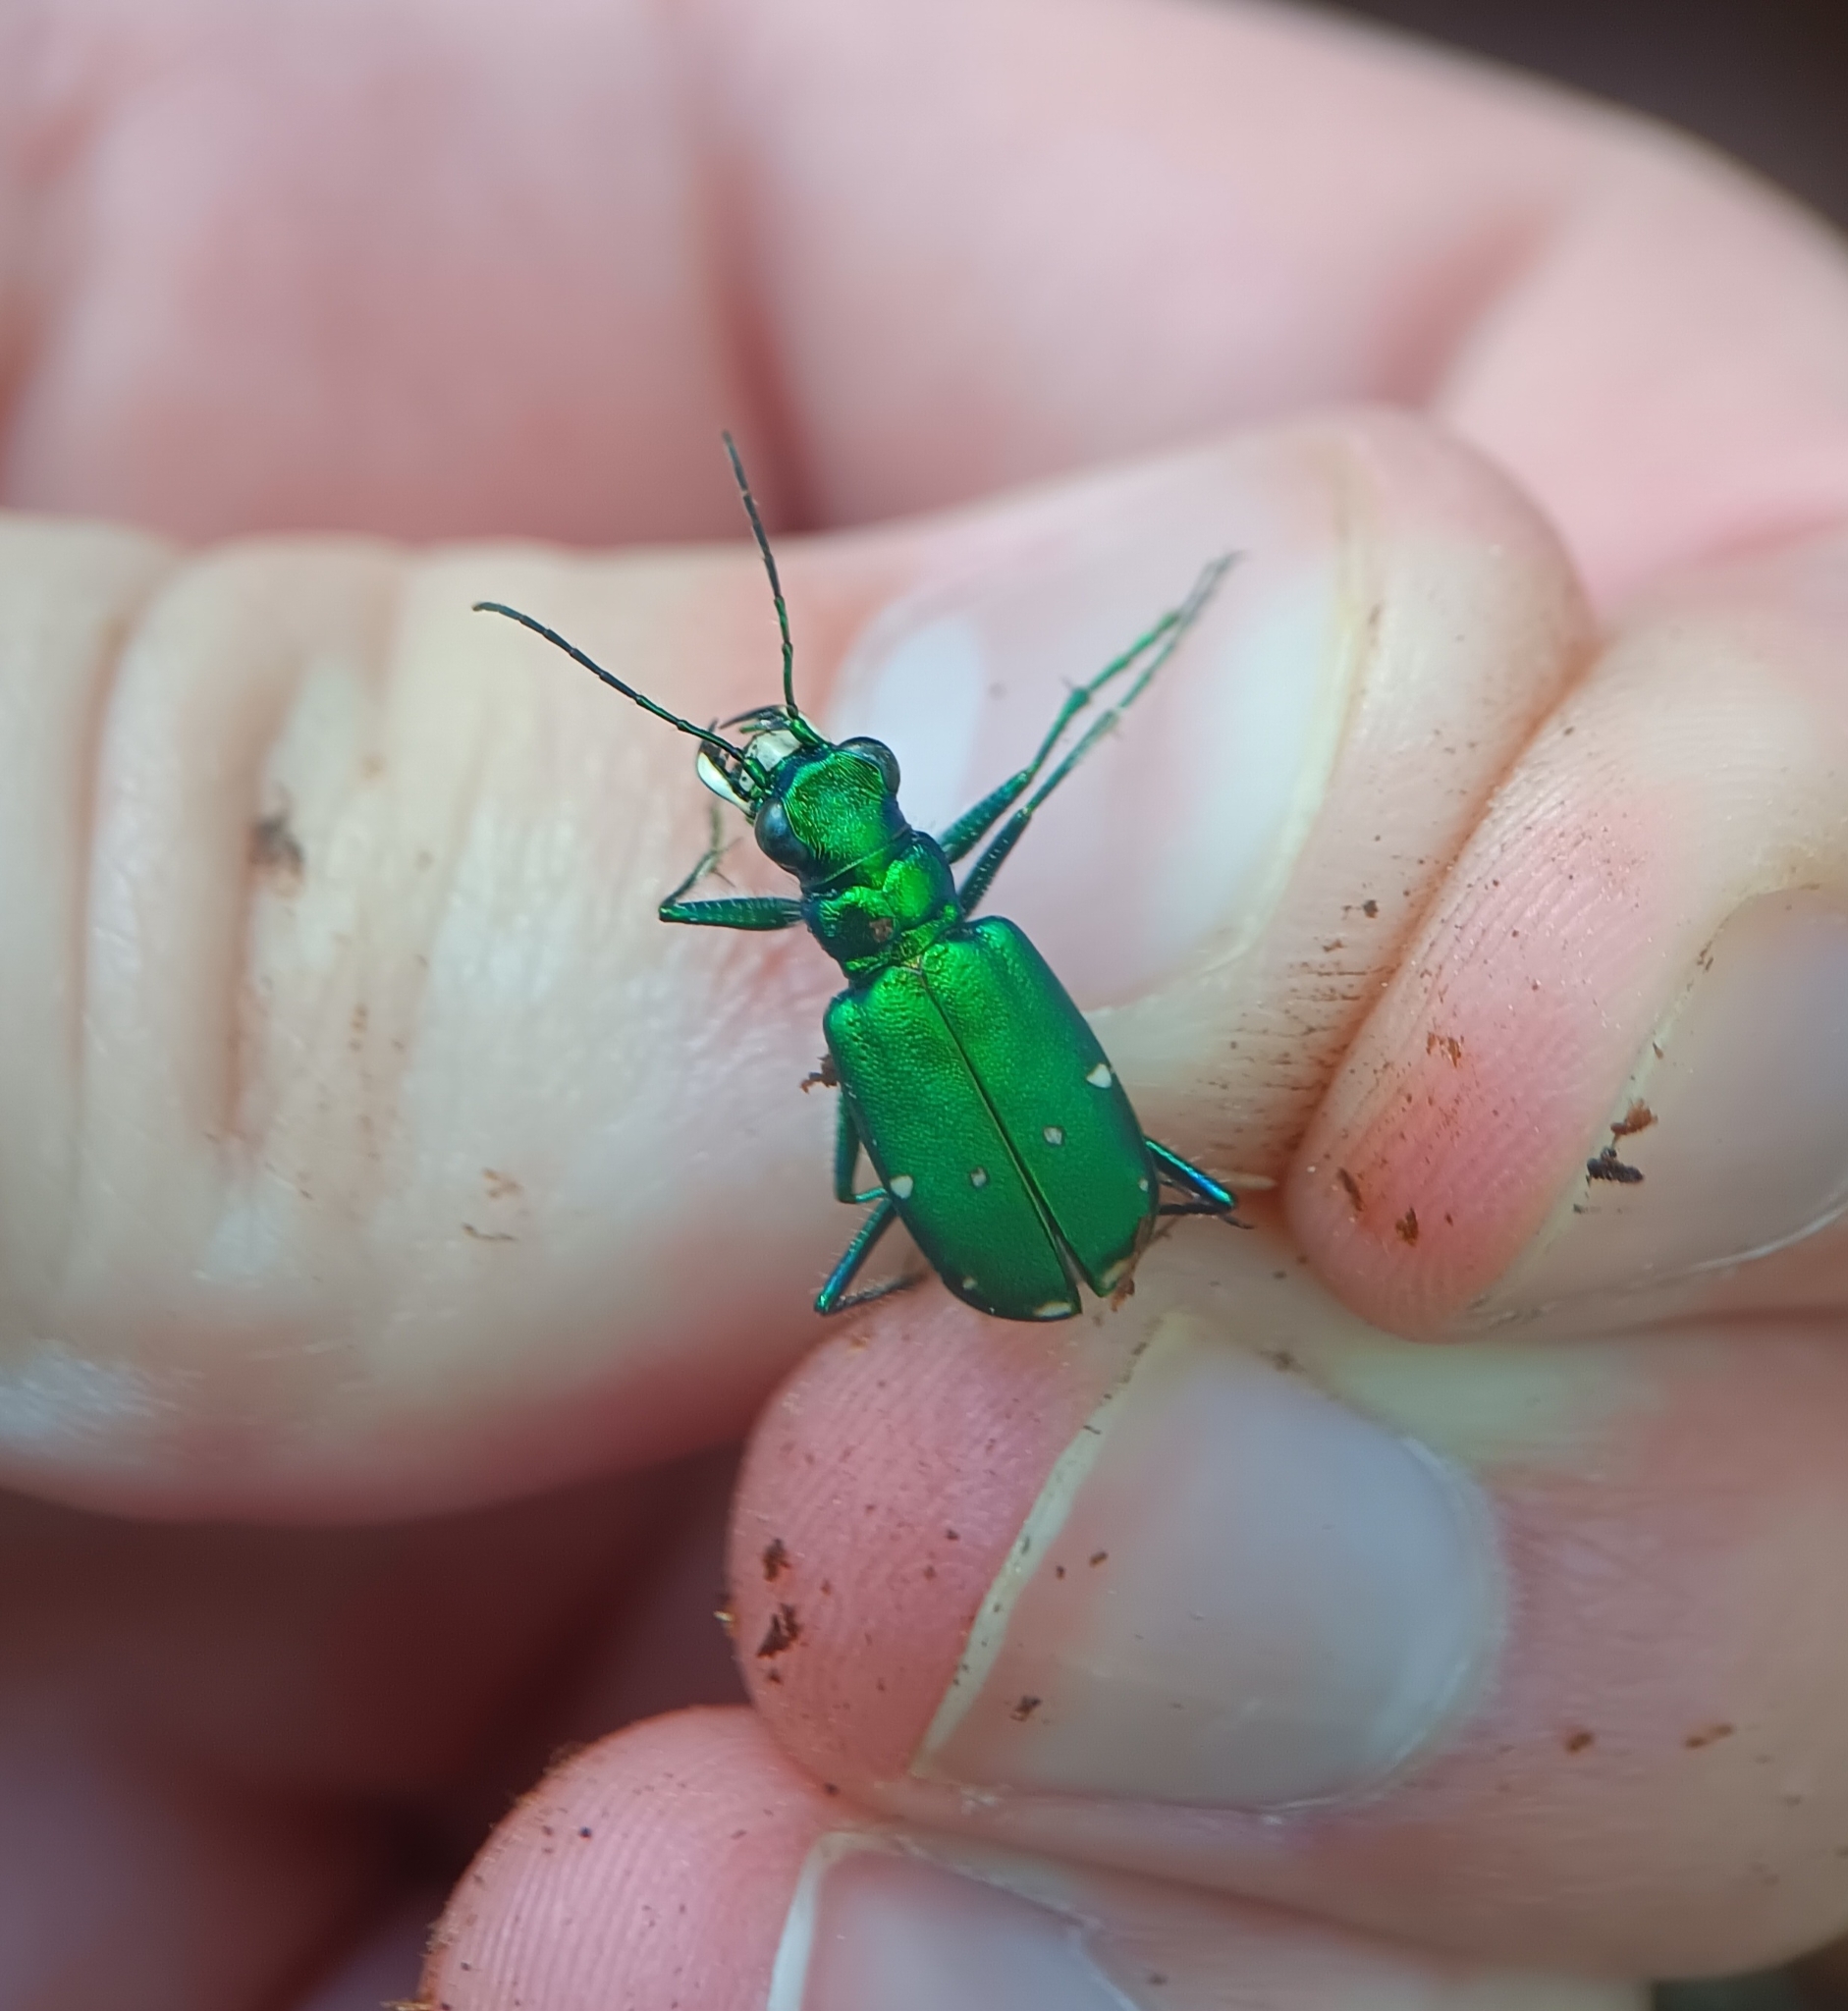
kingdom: Animalia
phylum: Arthropoda
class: Insecta
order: Coleoptera
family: Carabidae
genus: Cicindela
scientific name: Cicindela sexguttata
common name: Six-spotted tiger beetle
